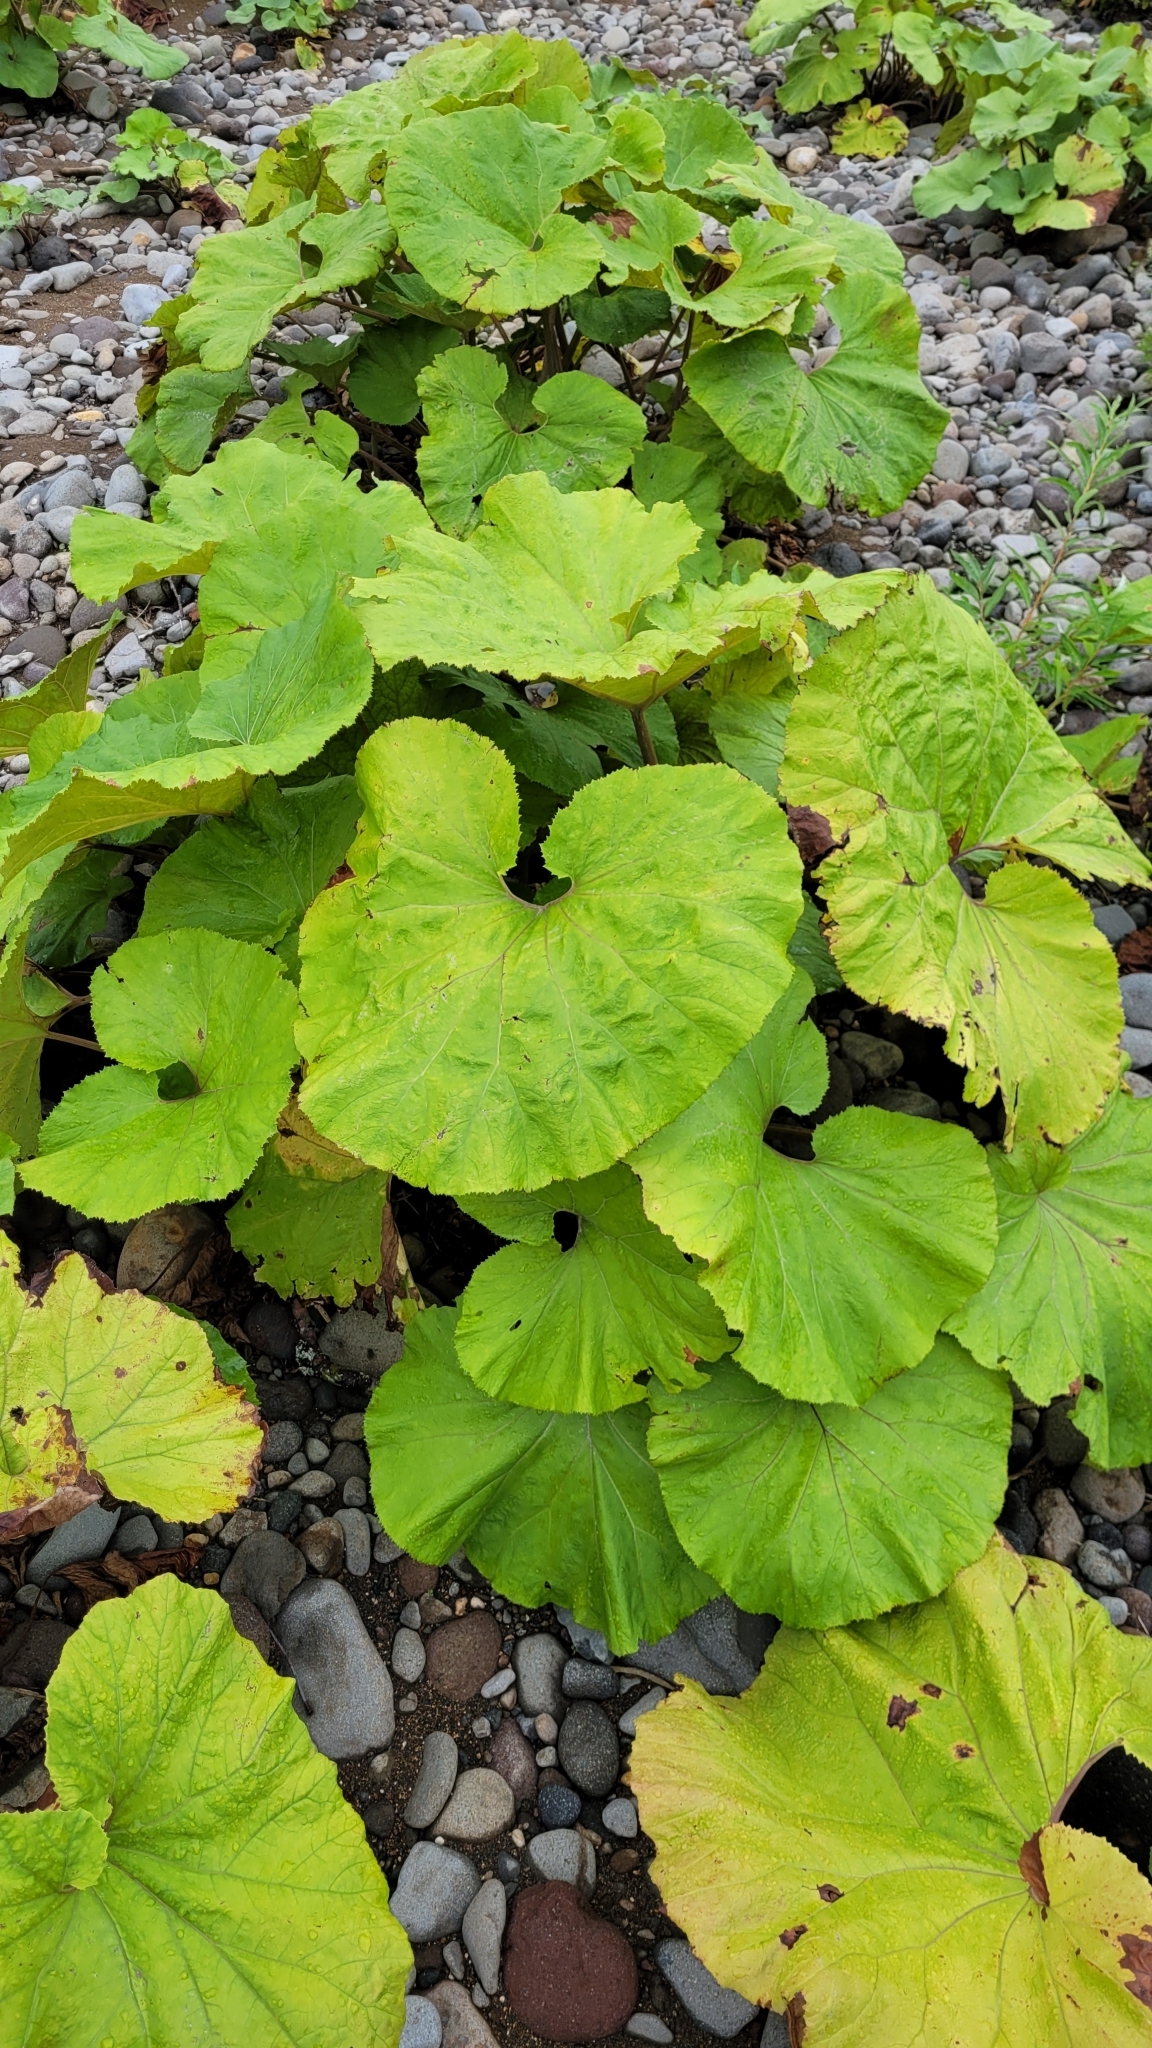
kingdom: Plantae
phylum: Tracheophyta
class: Magnoliopsida
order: Asterales
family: Asteraceae
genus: Petasites
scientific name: Petasites japonicus
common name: Giant butterbur
